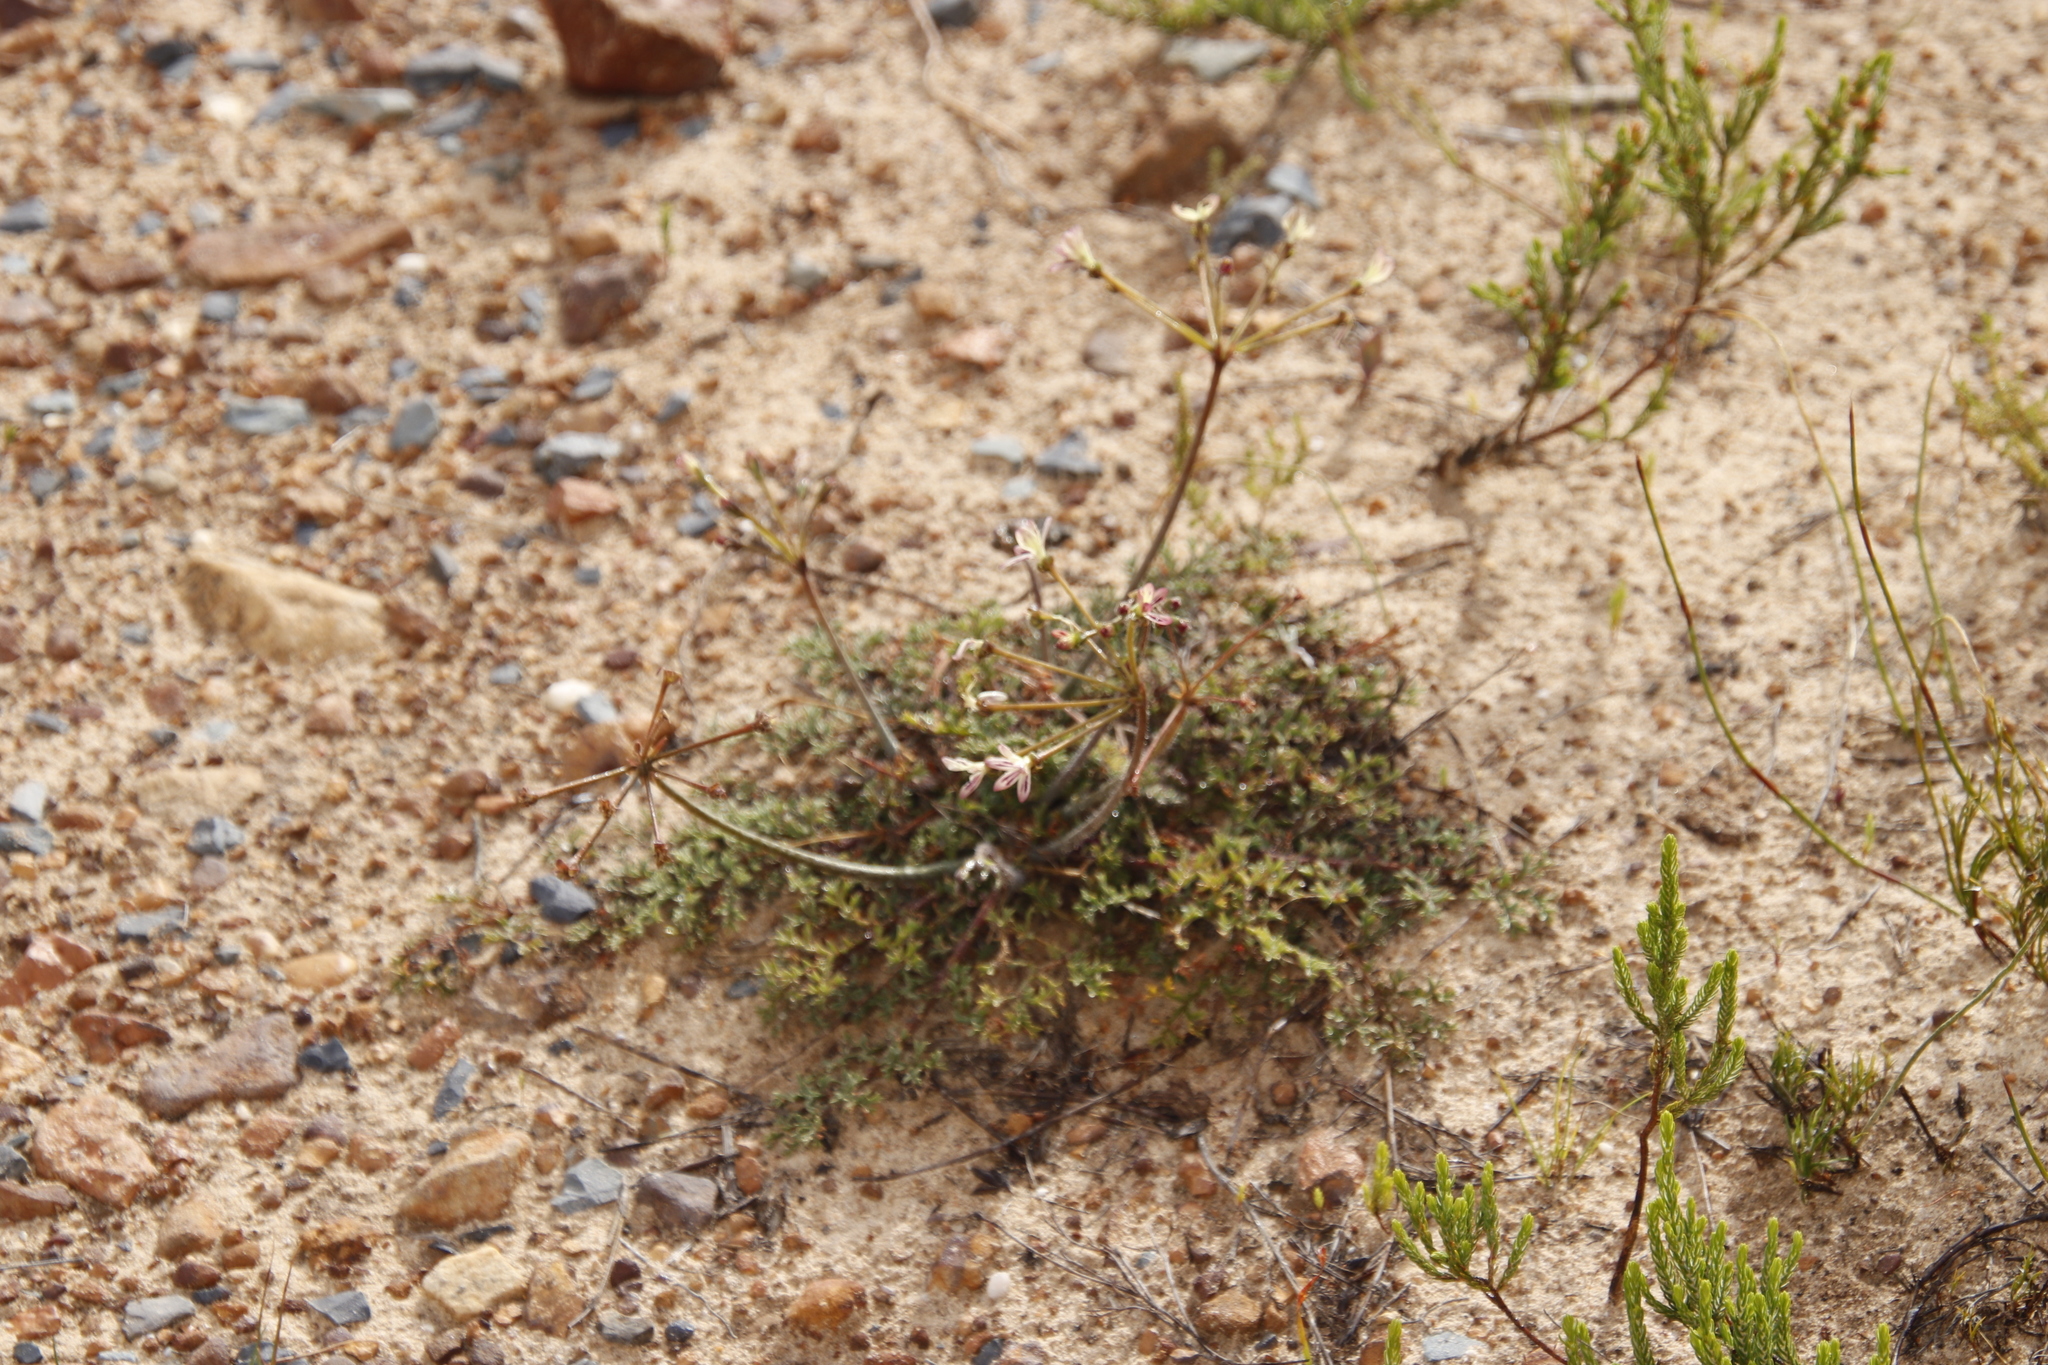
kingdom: Plantae
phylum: Tracheophyta
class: Magnoliopsida
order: Geraniales
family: Geraniaceae
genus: Pelargonium
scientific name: Pelargonium triste
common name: Night-scent pelargonium
